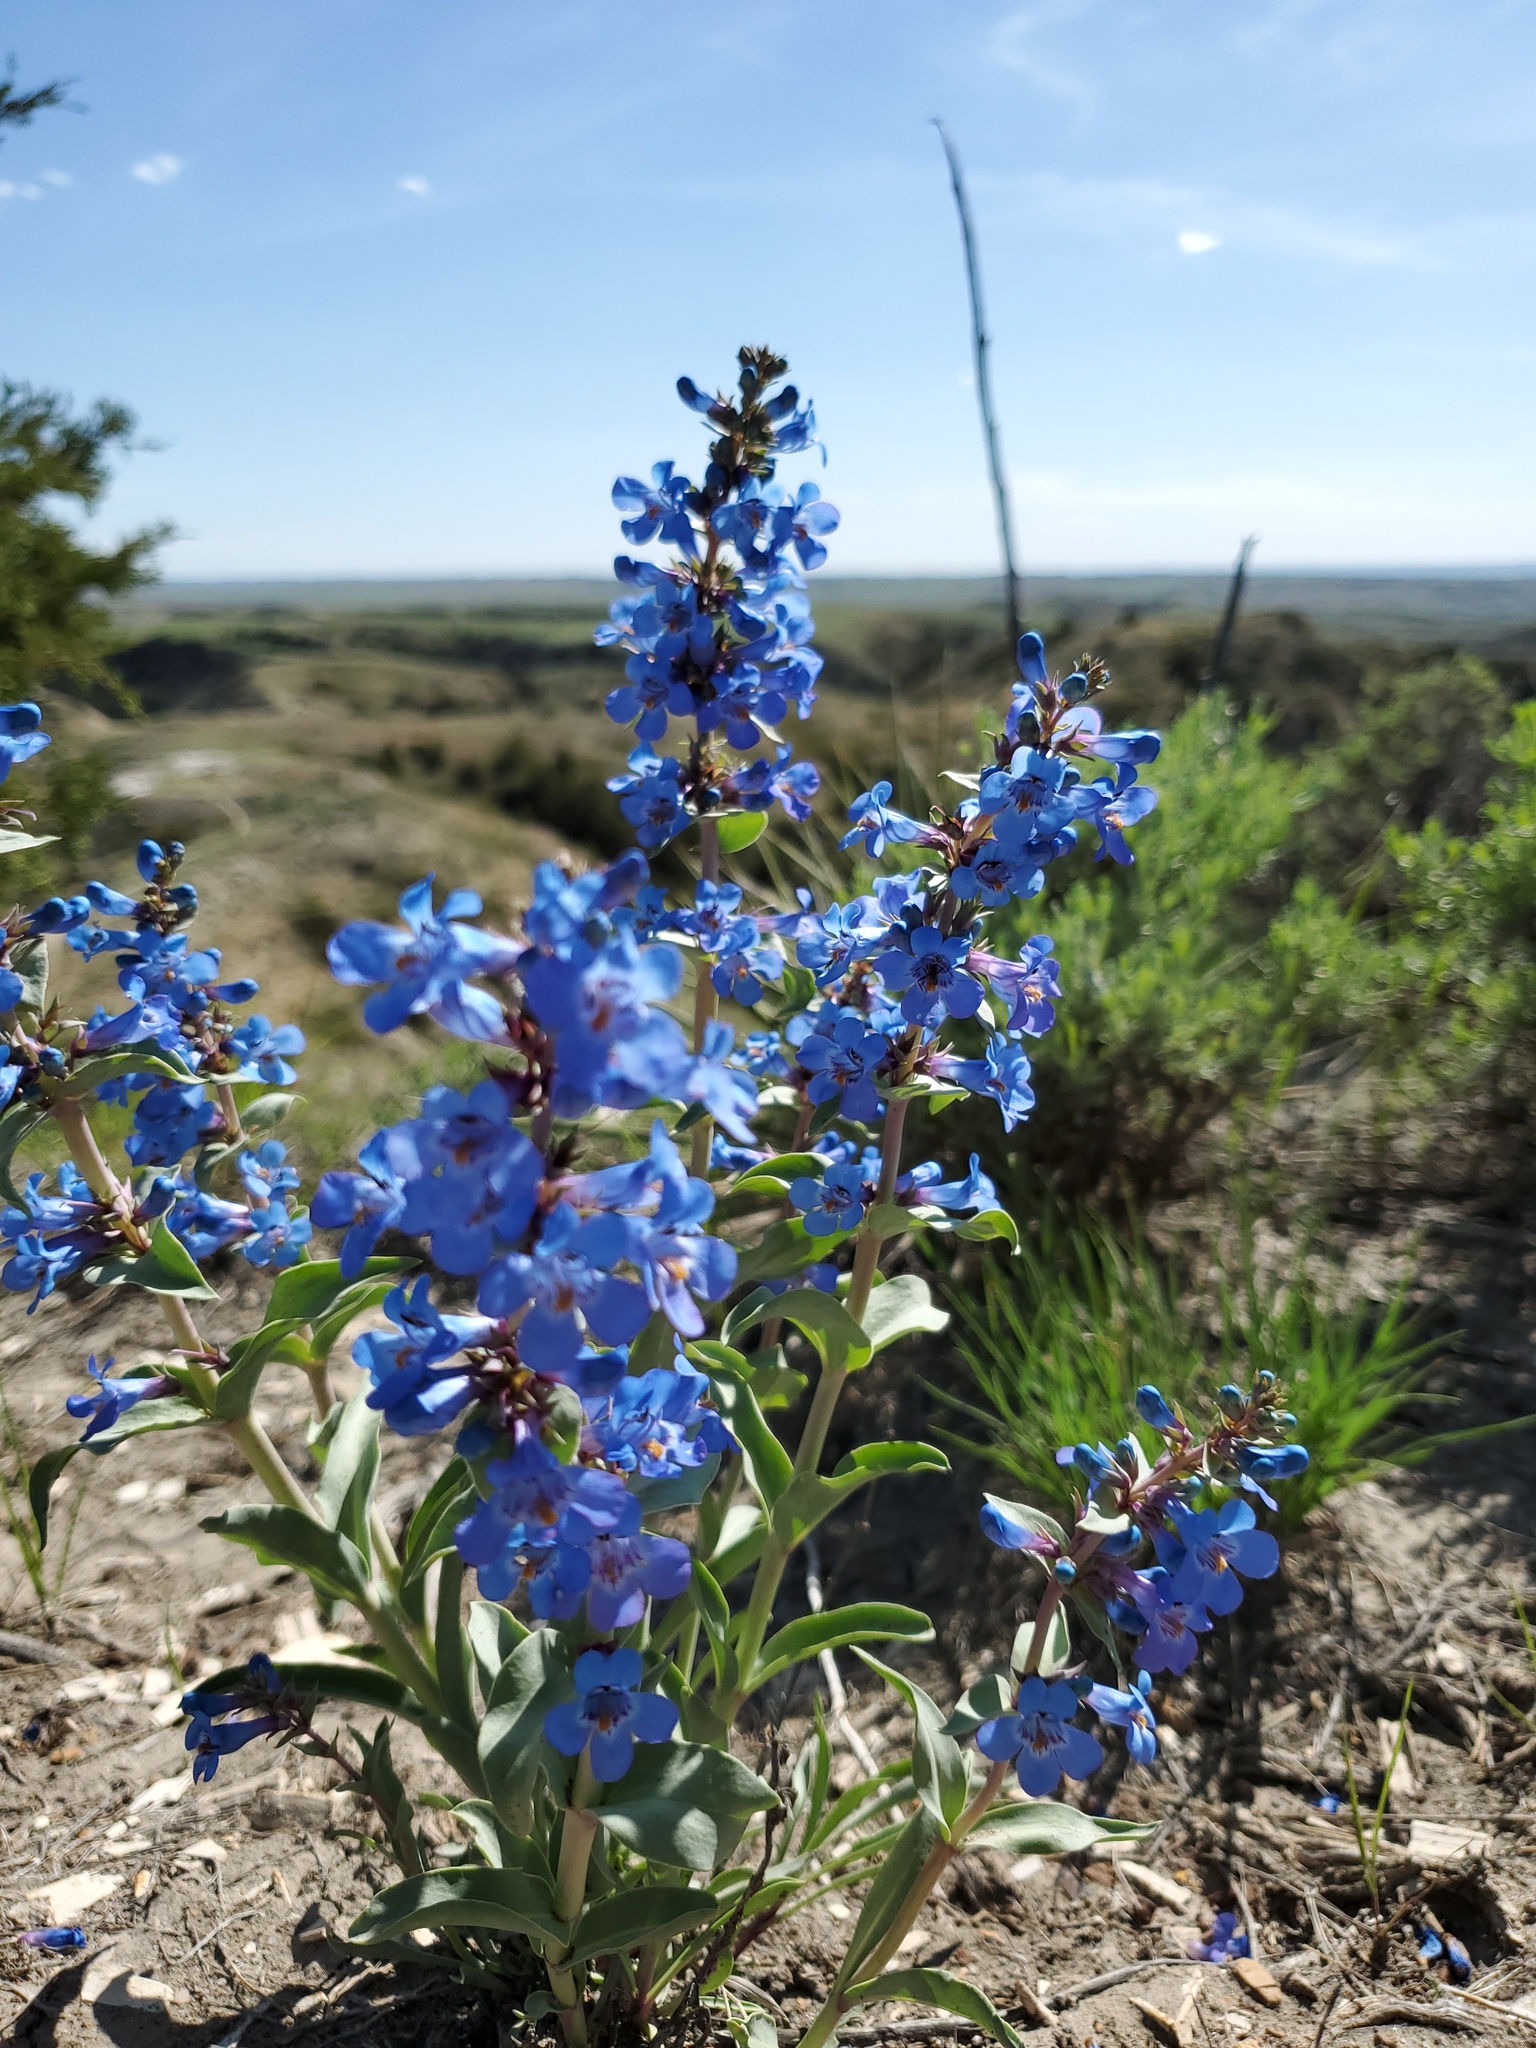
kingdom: Plantae
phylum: Tracheophyta
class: Magnoliopsida
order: Lamiales
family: Plantaginaceae
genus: Penstemon
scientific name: Penstemon nitidus
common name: Shining penstemon
